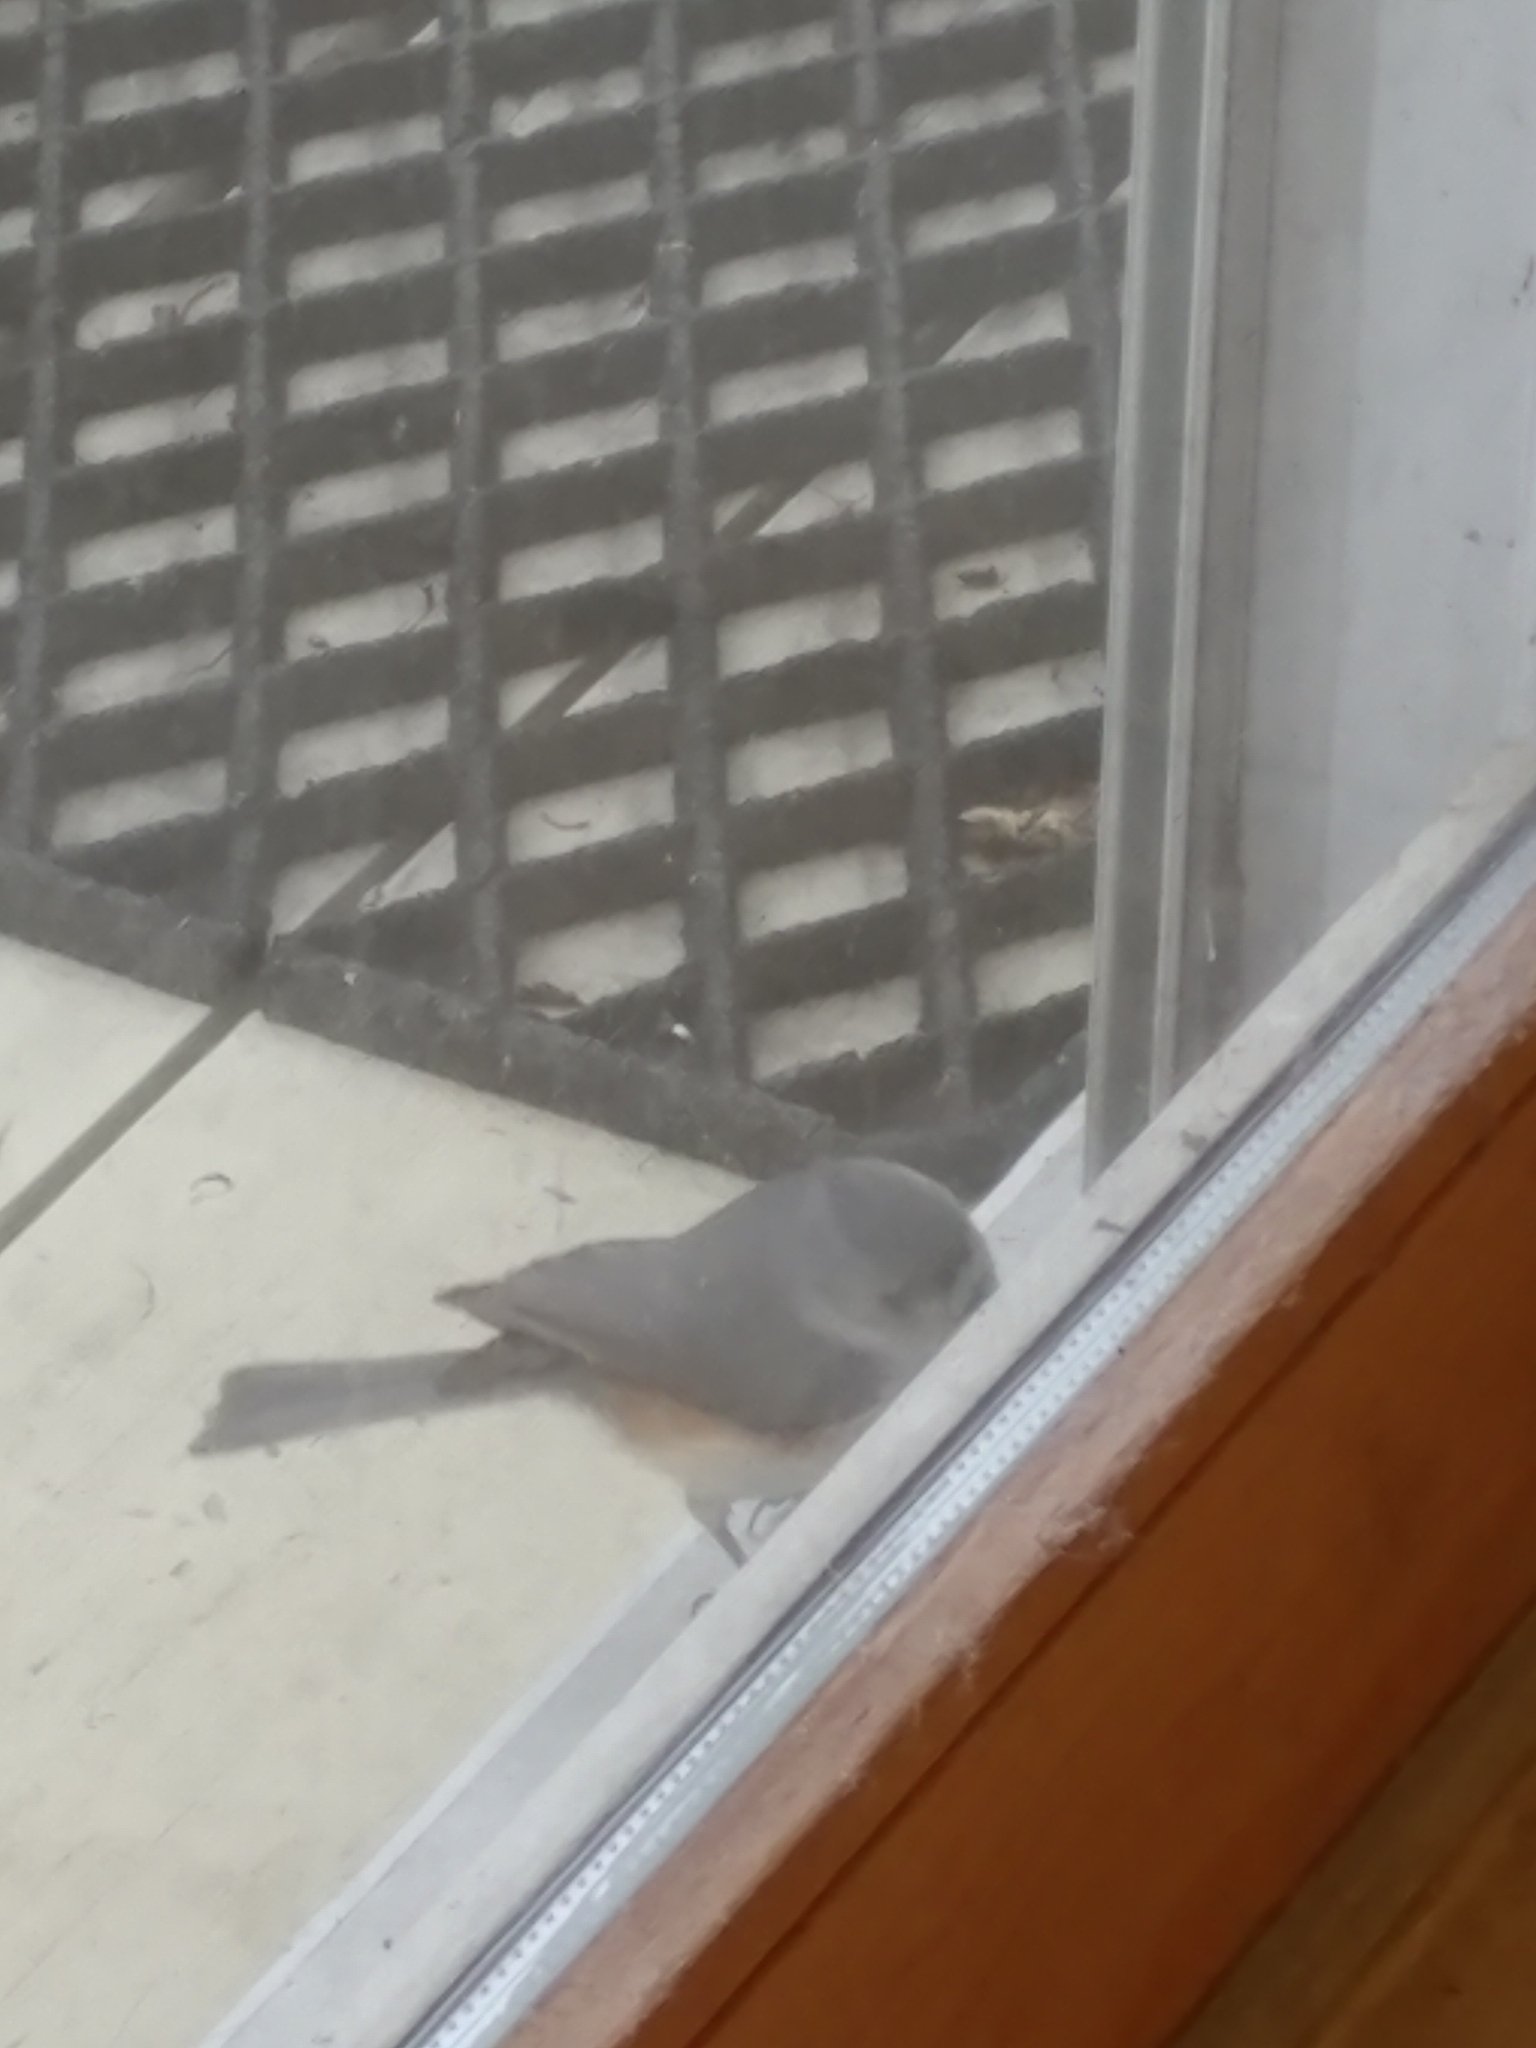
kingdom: Animalia
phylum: Chordata
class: Aves
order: Passeriformes
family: Paridae
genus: Baeolophus
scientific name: Baeolophus bicolor
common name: Tufted titmouse
